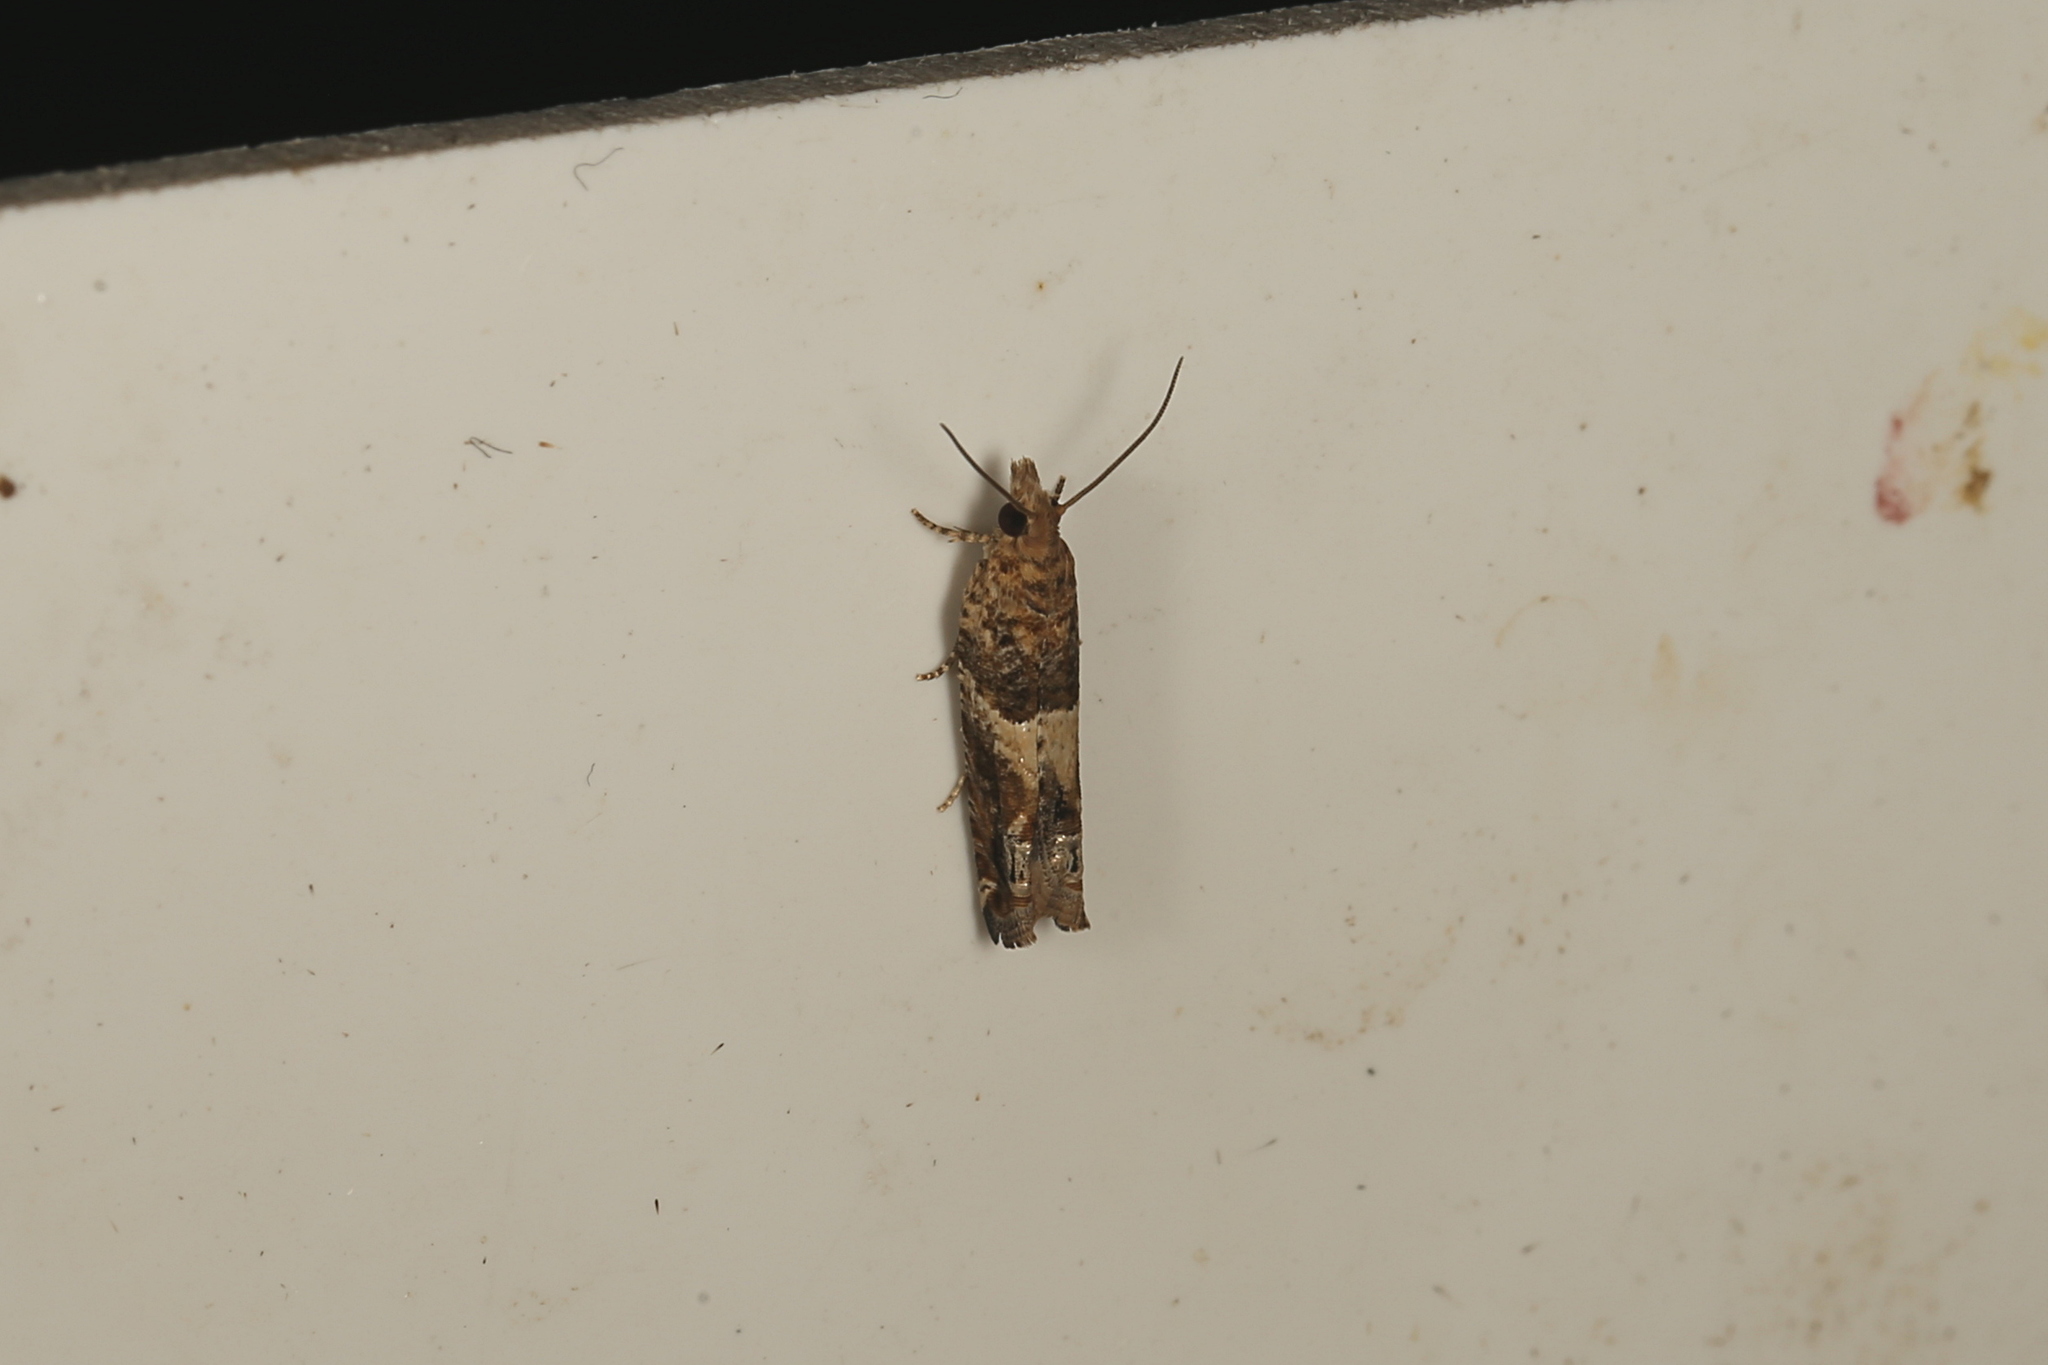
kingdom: Animalia
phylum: Arthropoda
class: Insecta
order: Lepidoptera
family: Tortricidae
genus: Crocidosema
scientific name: Crocidosema plebejana
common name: Southern bell
